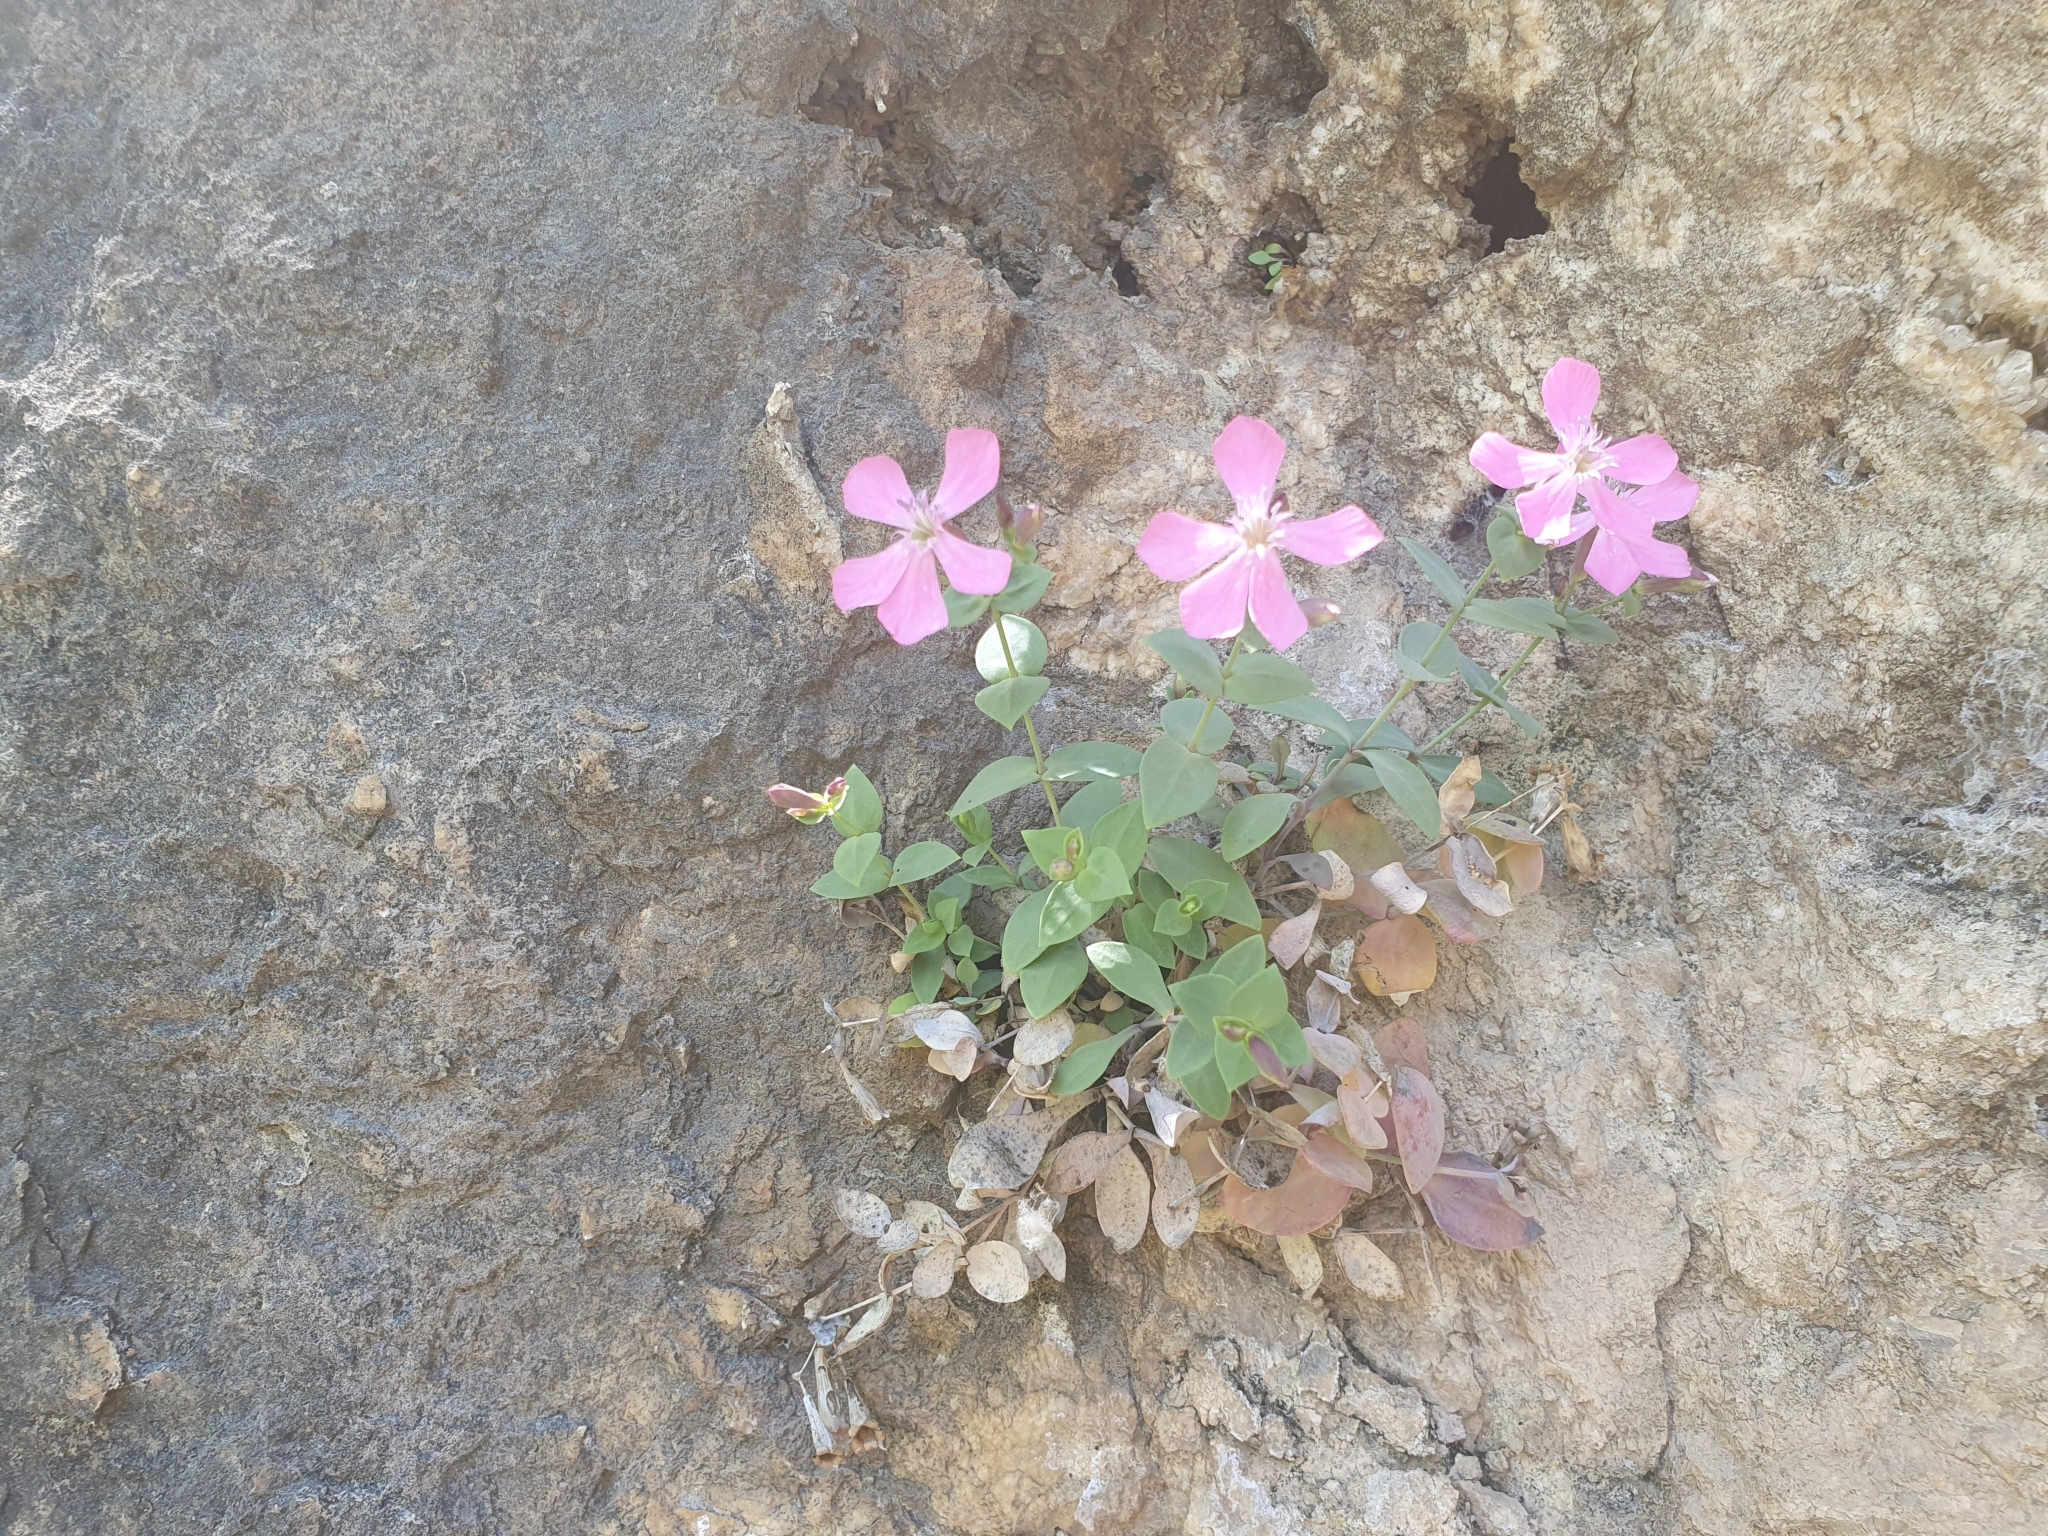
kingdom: Plantae
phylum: Tracheophyta
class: Magnoliopsida
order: Caryophyllales
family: Caryophyllaceae
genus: Petrocoptis
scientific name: Petrocoptis grandiflora
